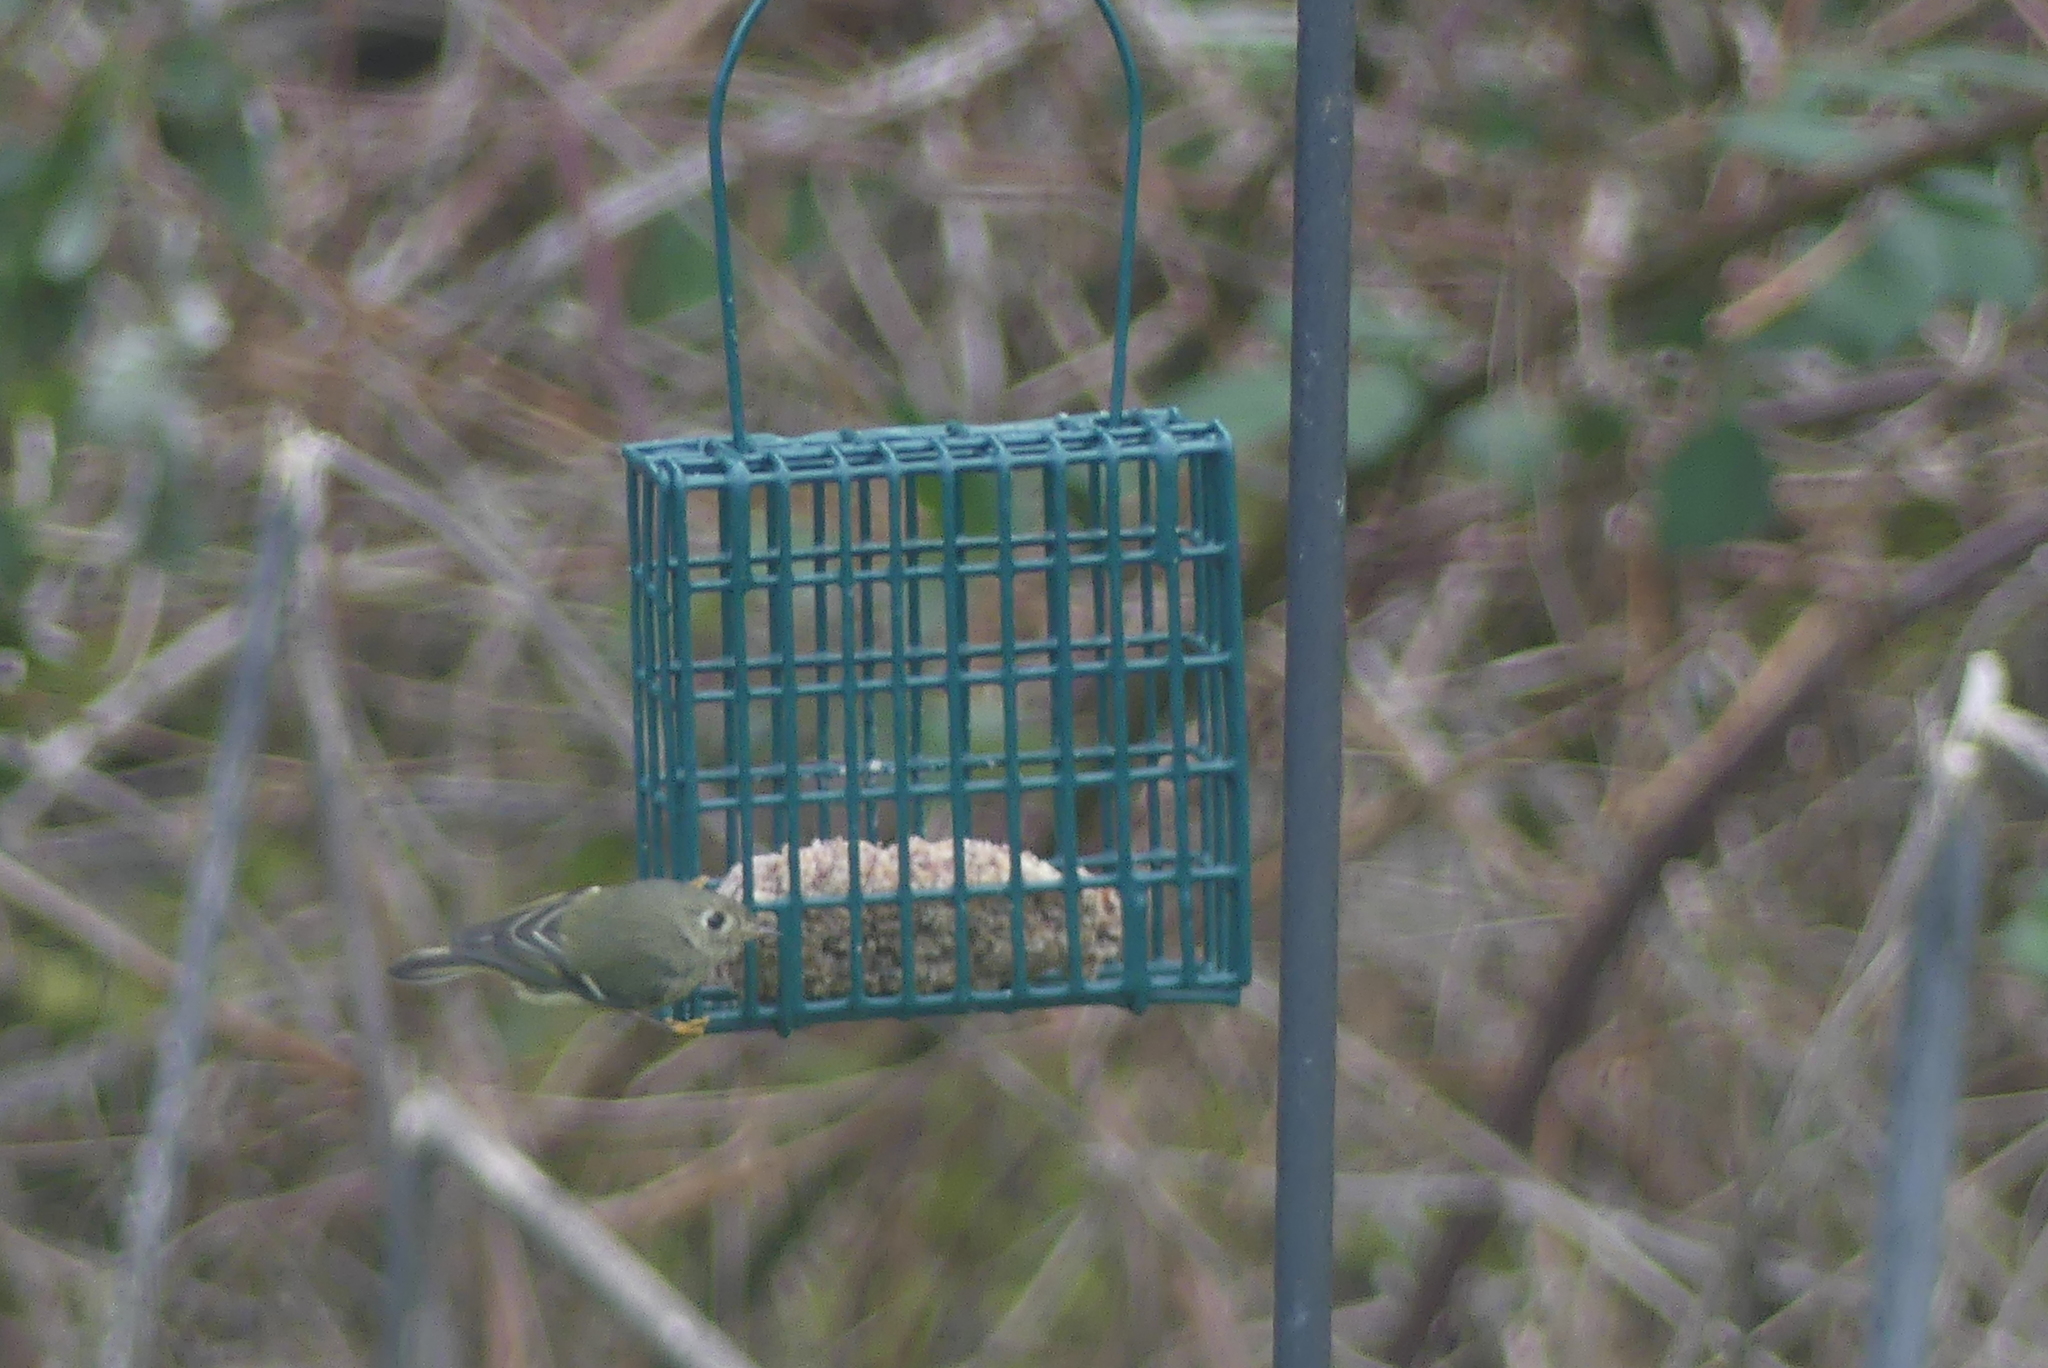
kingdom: Animalia
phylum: Chordata
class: Aves
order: Passeriformes
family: Regulidae
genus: Regulus
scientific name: Regulus calendula
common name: Ruby-crowned kinglet
